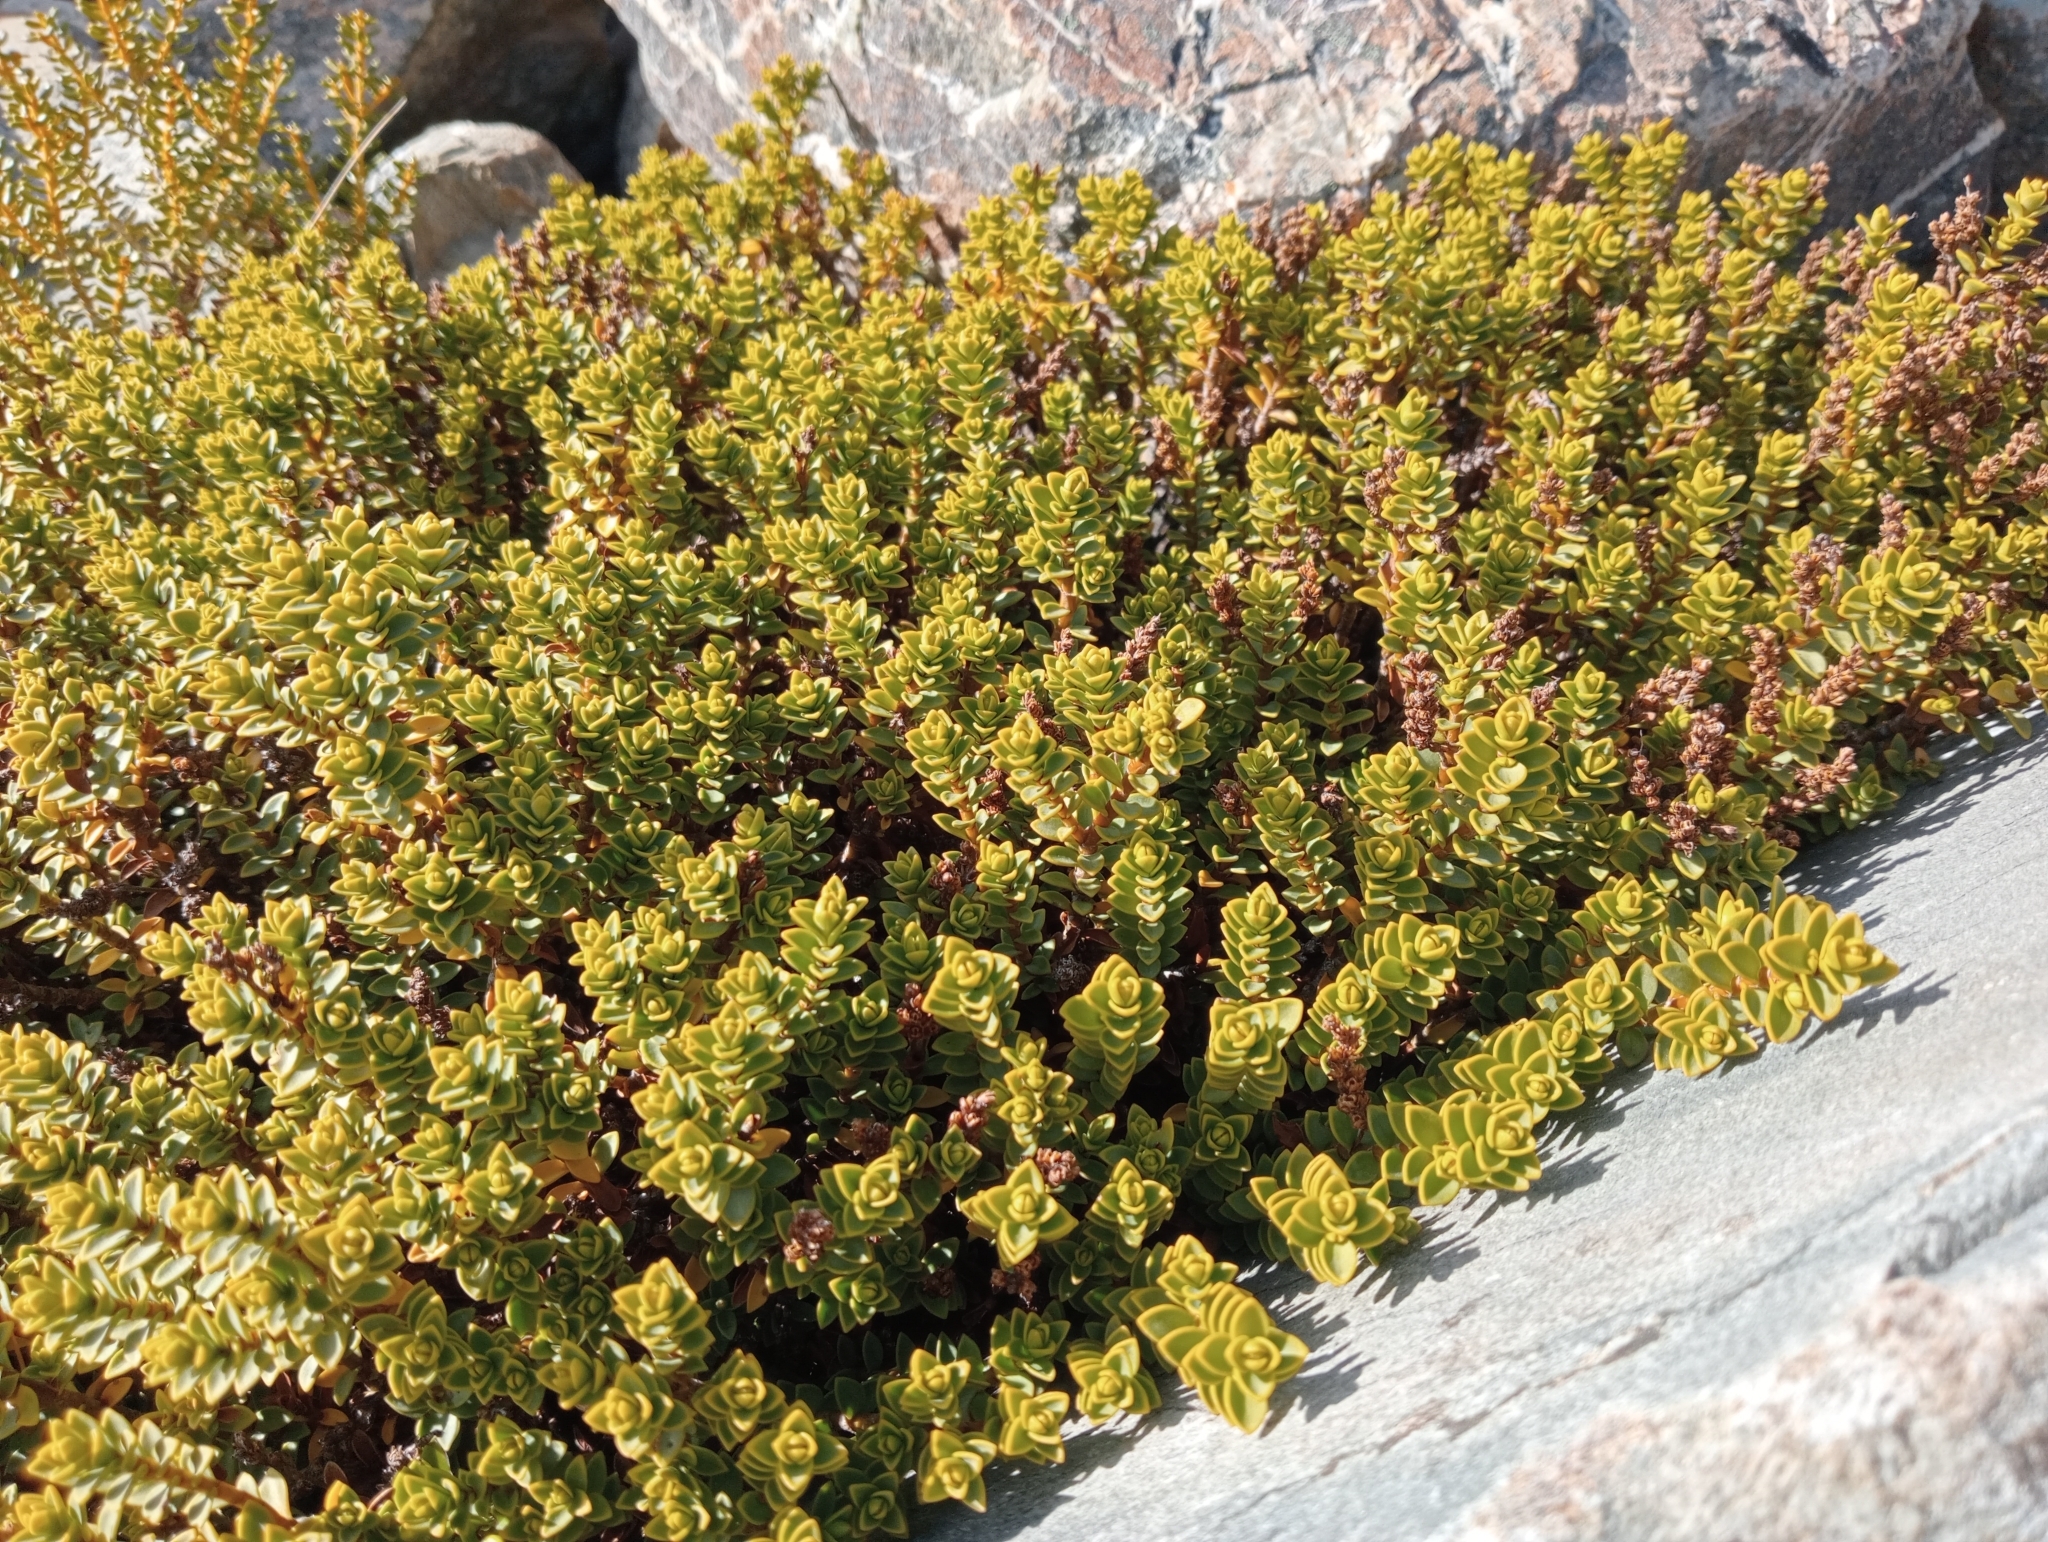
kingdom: Plantae
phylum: Tracheophyta
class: Magnoliopsida
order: Lamiales
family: Plantaginaceae
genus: Veronica
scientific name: Veronica buchananii
